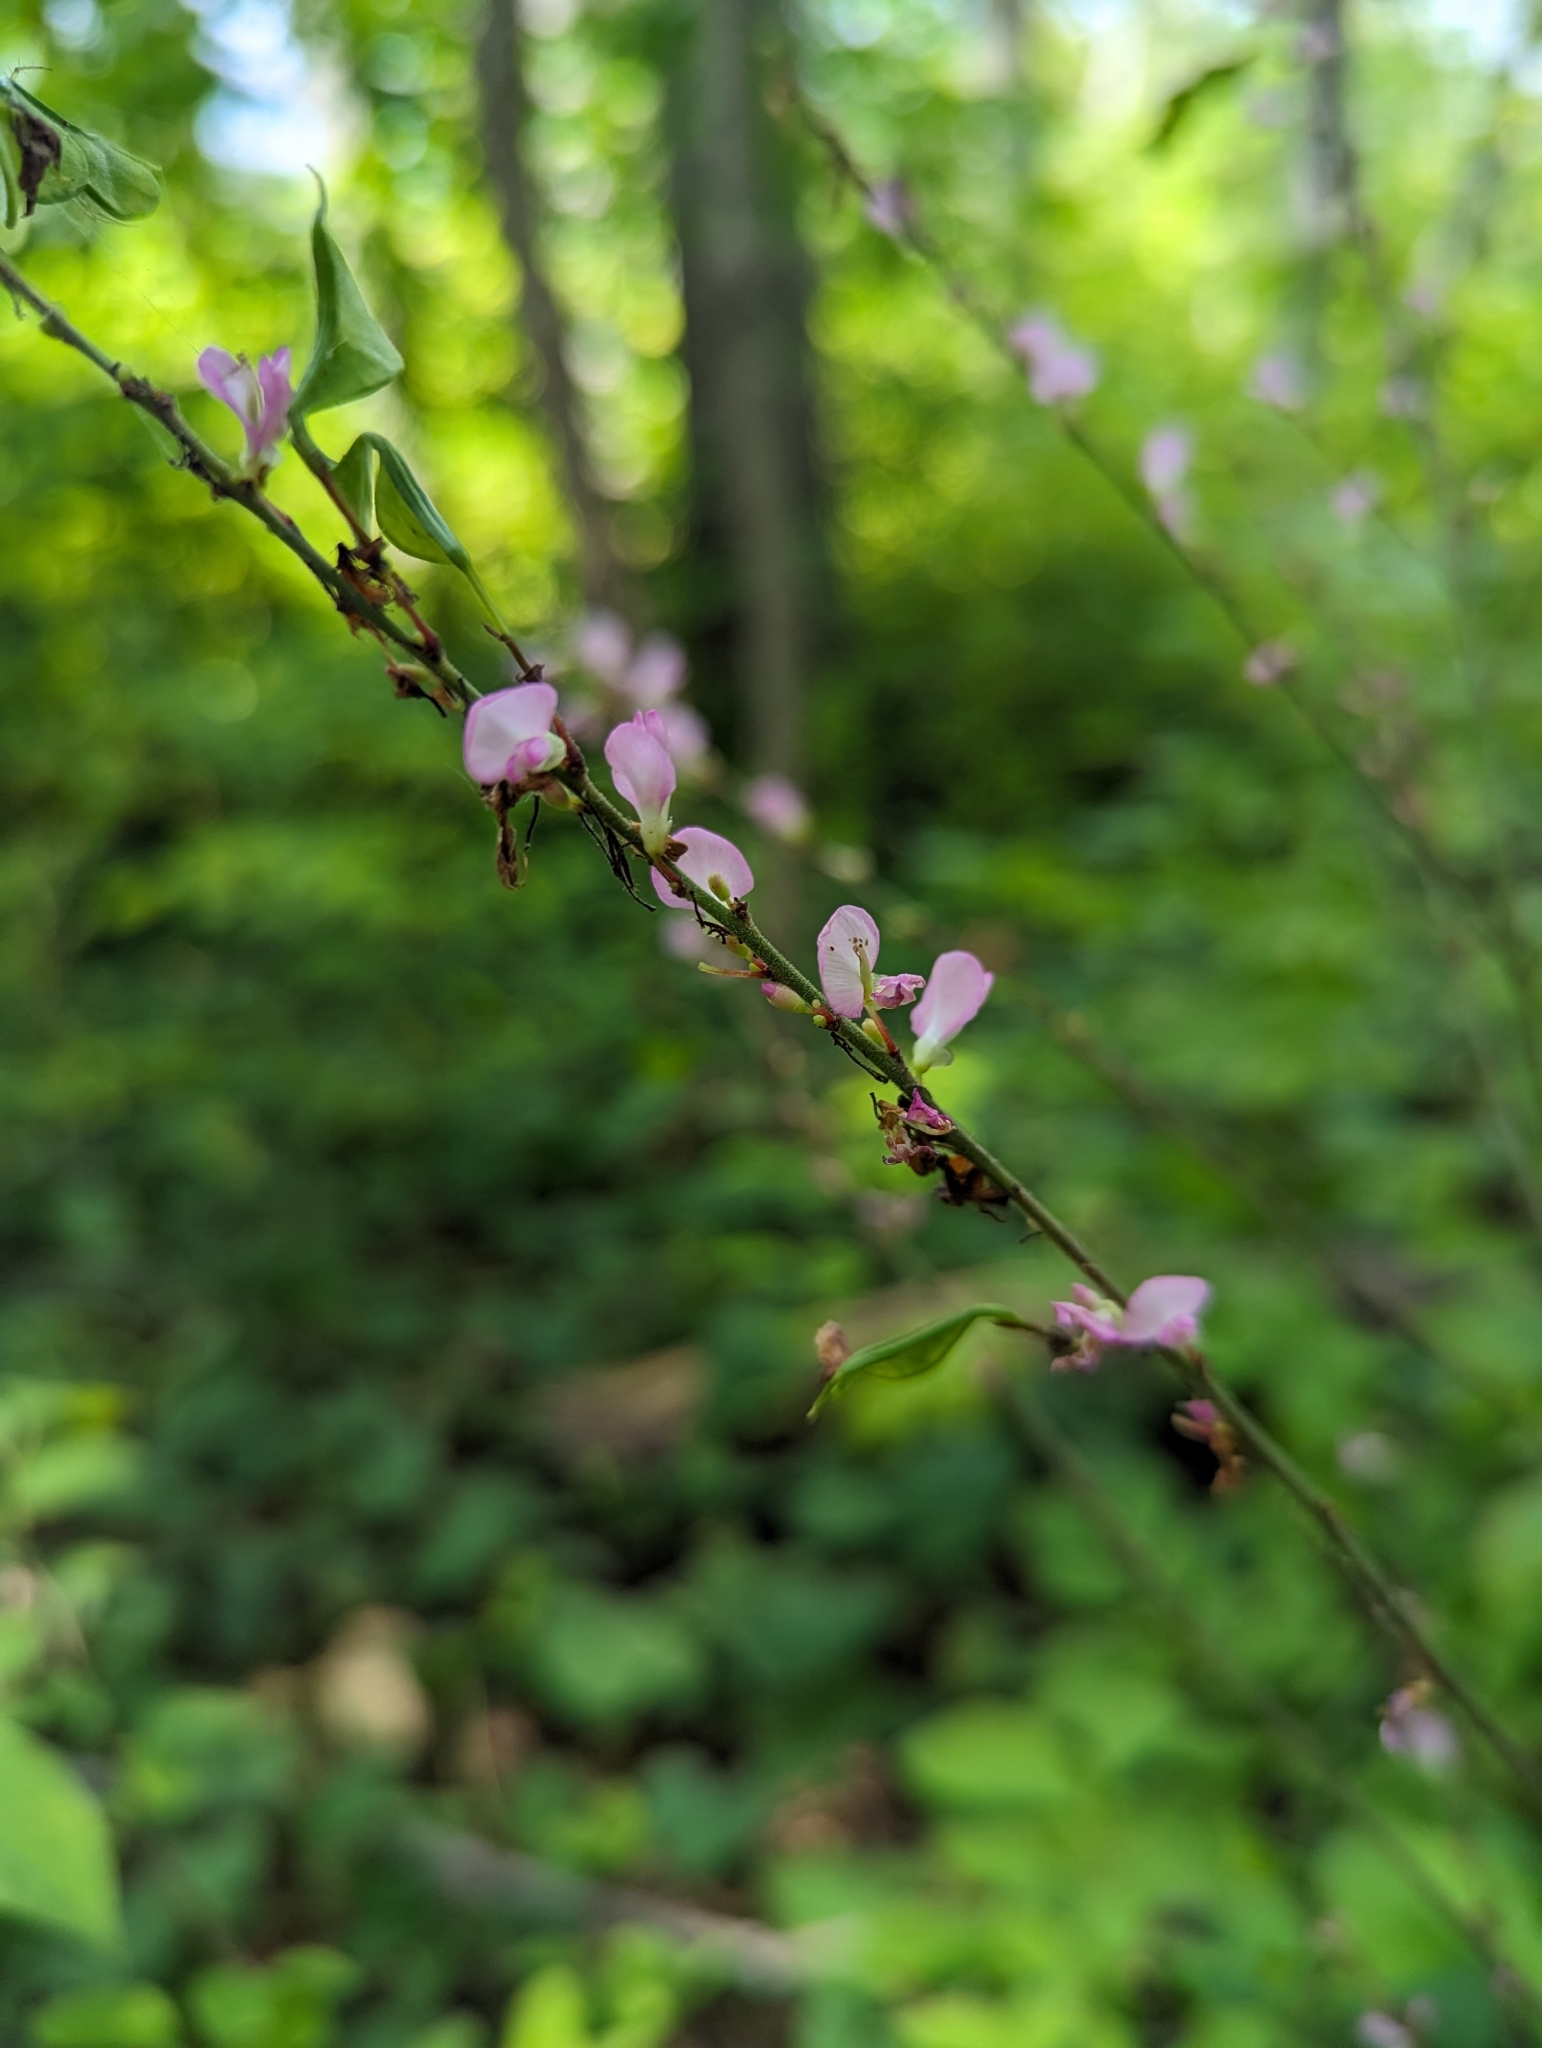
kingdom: Plantae
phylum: Tracheophyta
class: Magnoliopsida
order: Fabales
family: Fabaceae
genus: Hylodesmum
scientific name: Hylodesmum glutinosum
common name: Clustered-leaved tick-trefoil
